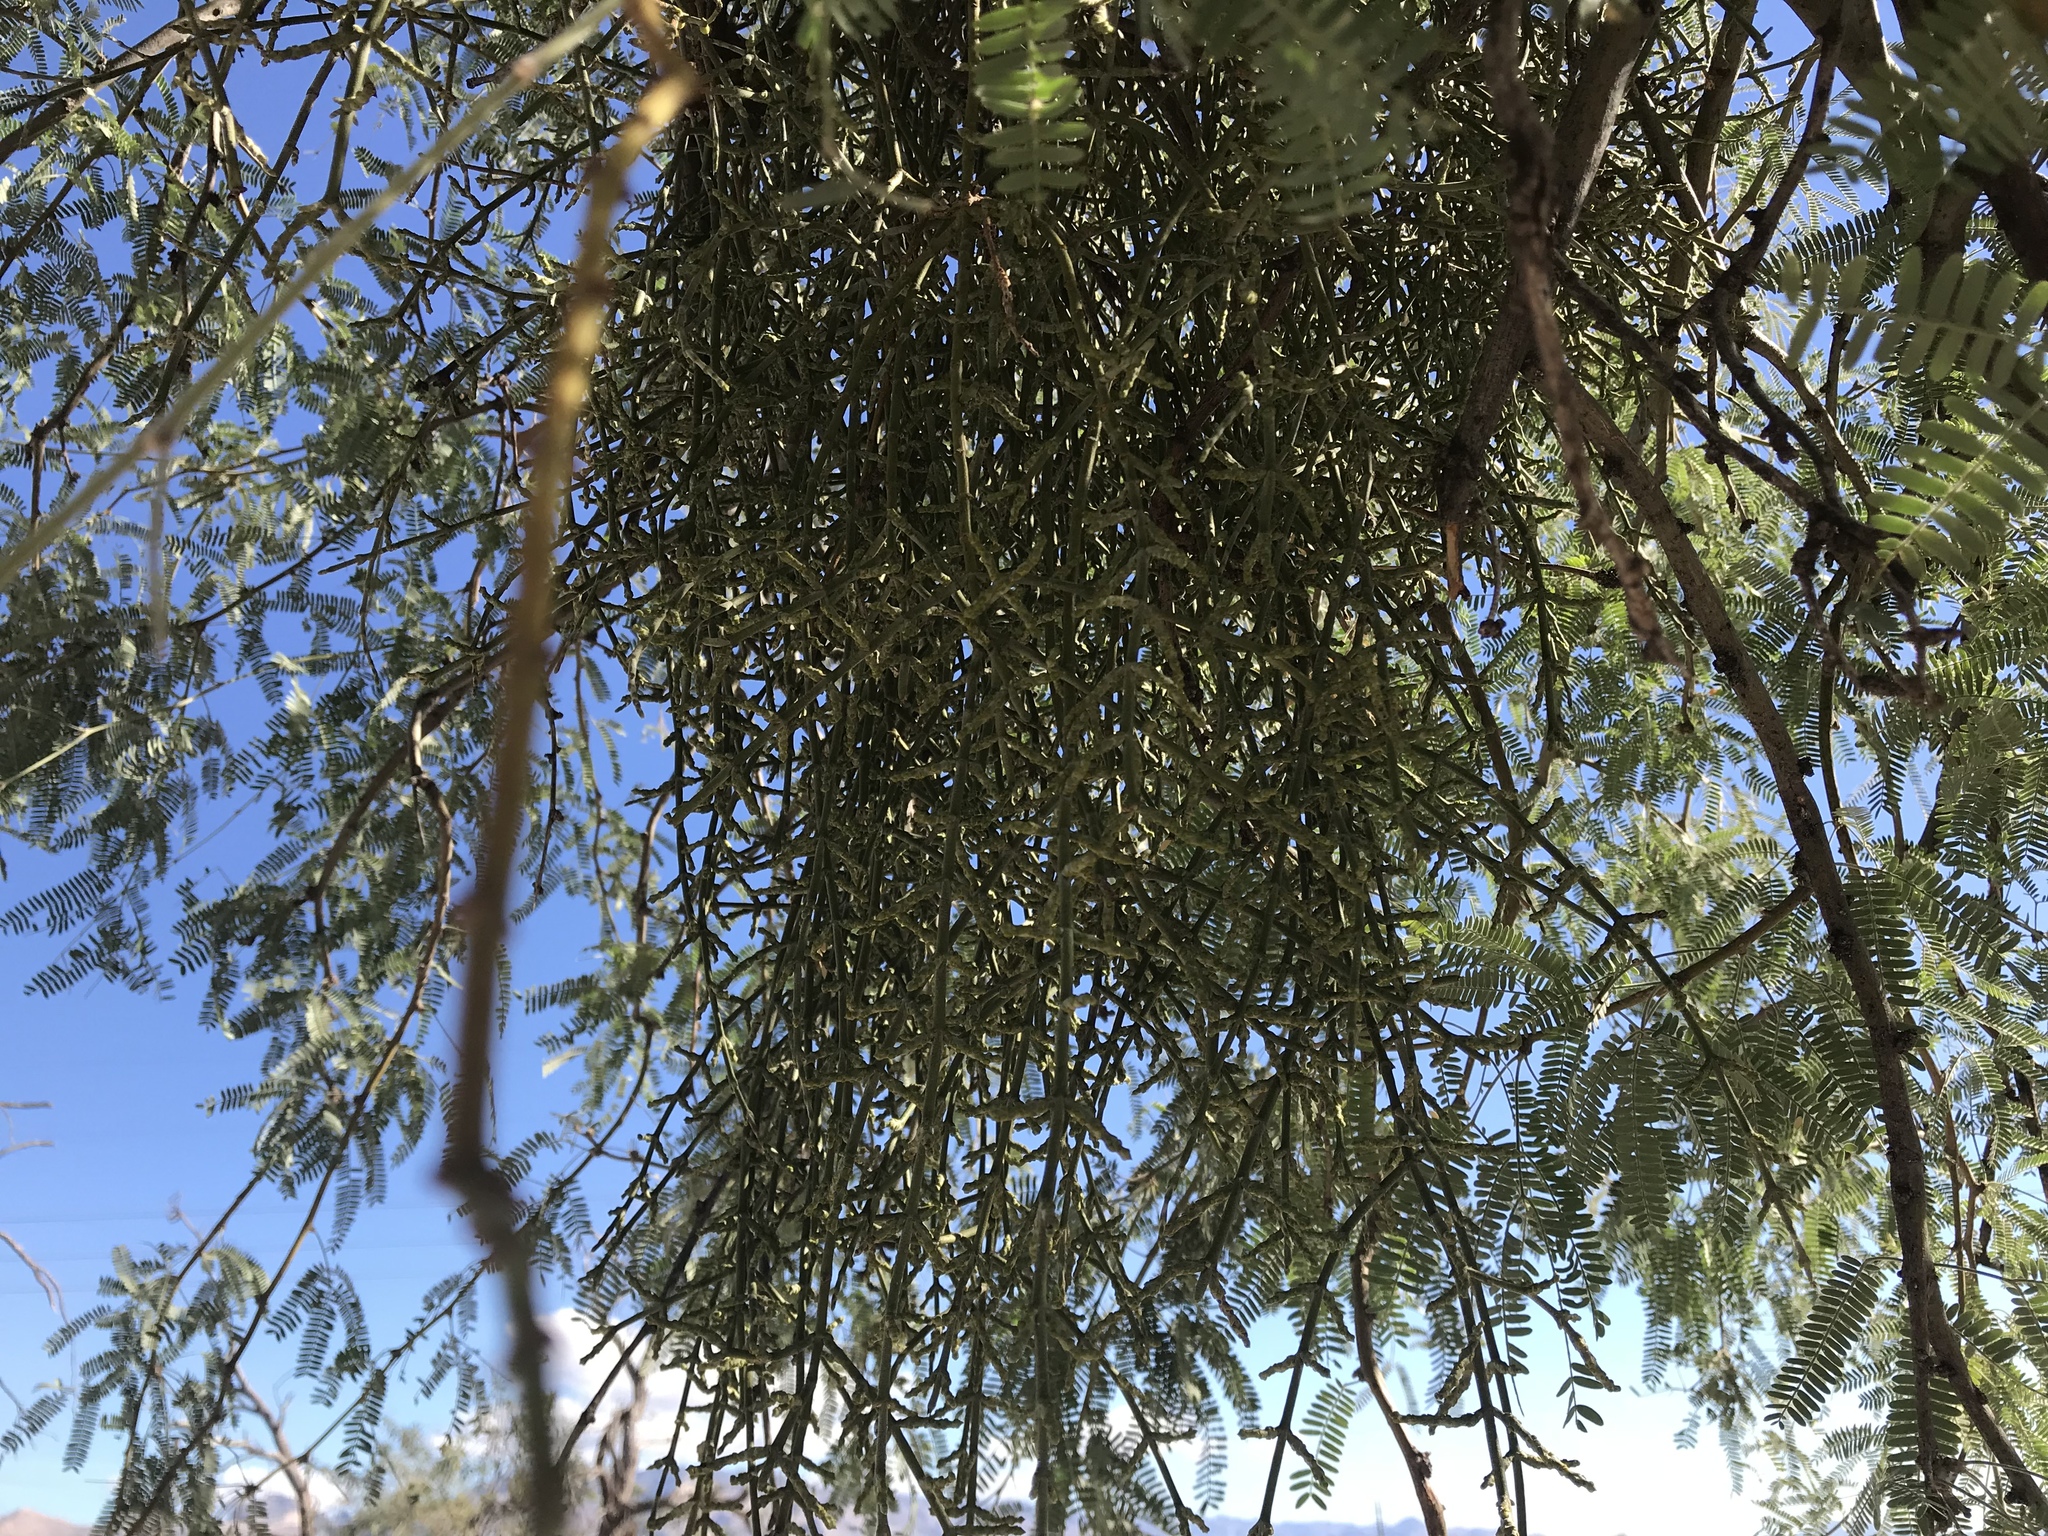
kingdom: Plantae
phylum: Tracheophyta
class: Magnoliopsida
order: Santalales
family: Viscaceae
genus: Phoradendron
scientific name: Phoradendron californicum
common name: Acacia mistletoe
